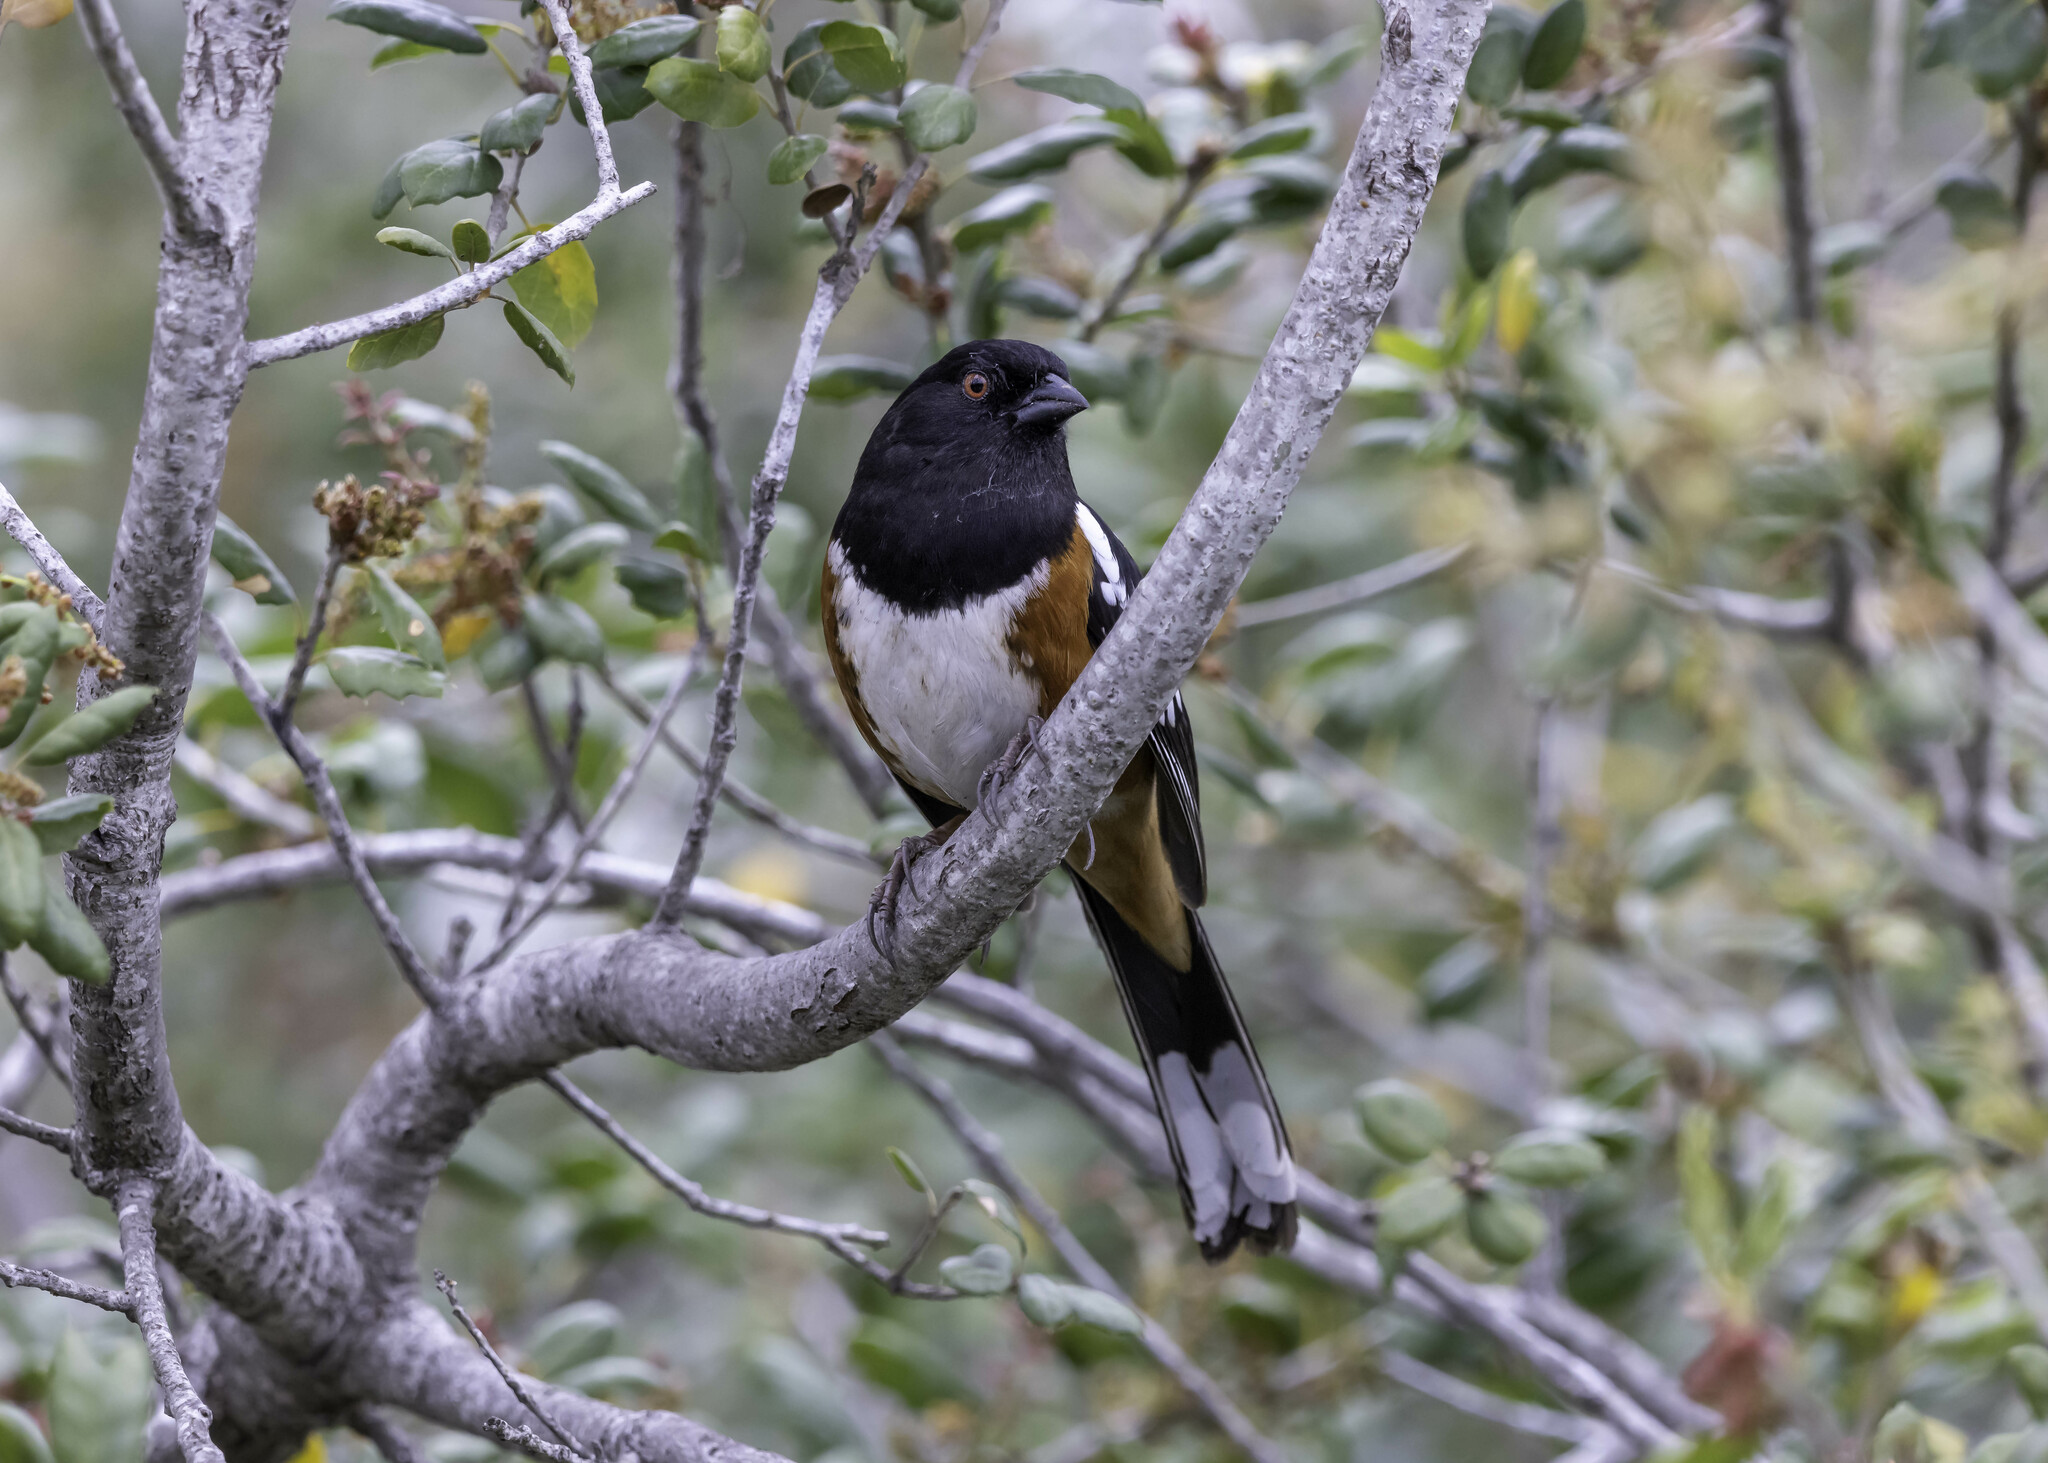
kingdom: Animalia
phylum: Chordata
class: Aves
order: Passeriformes
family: Passerellidae
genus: Pipilo
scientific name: Pipilo maculatus
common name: Spotted towhee
